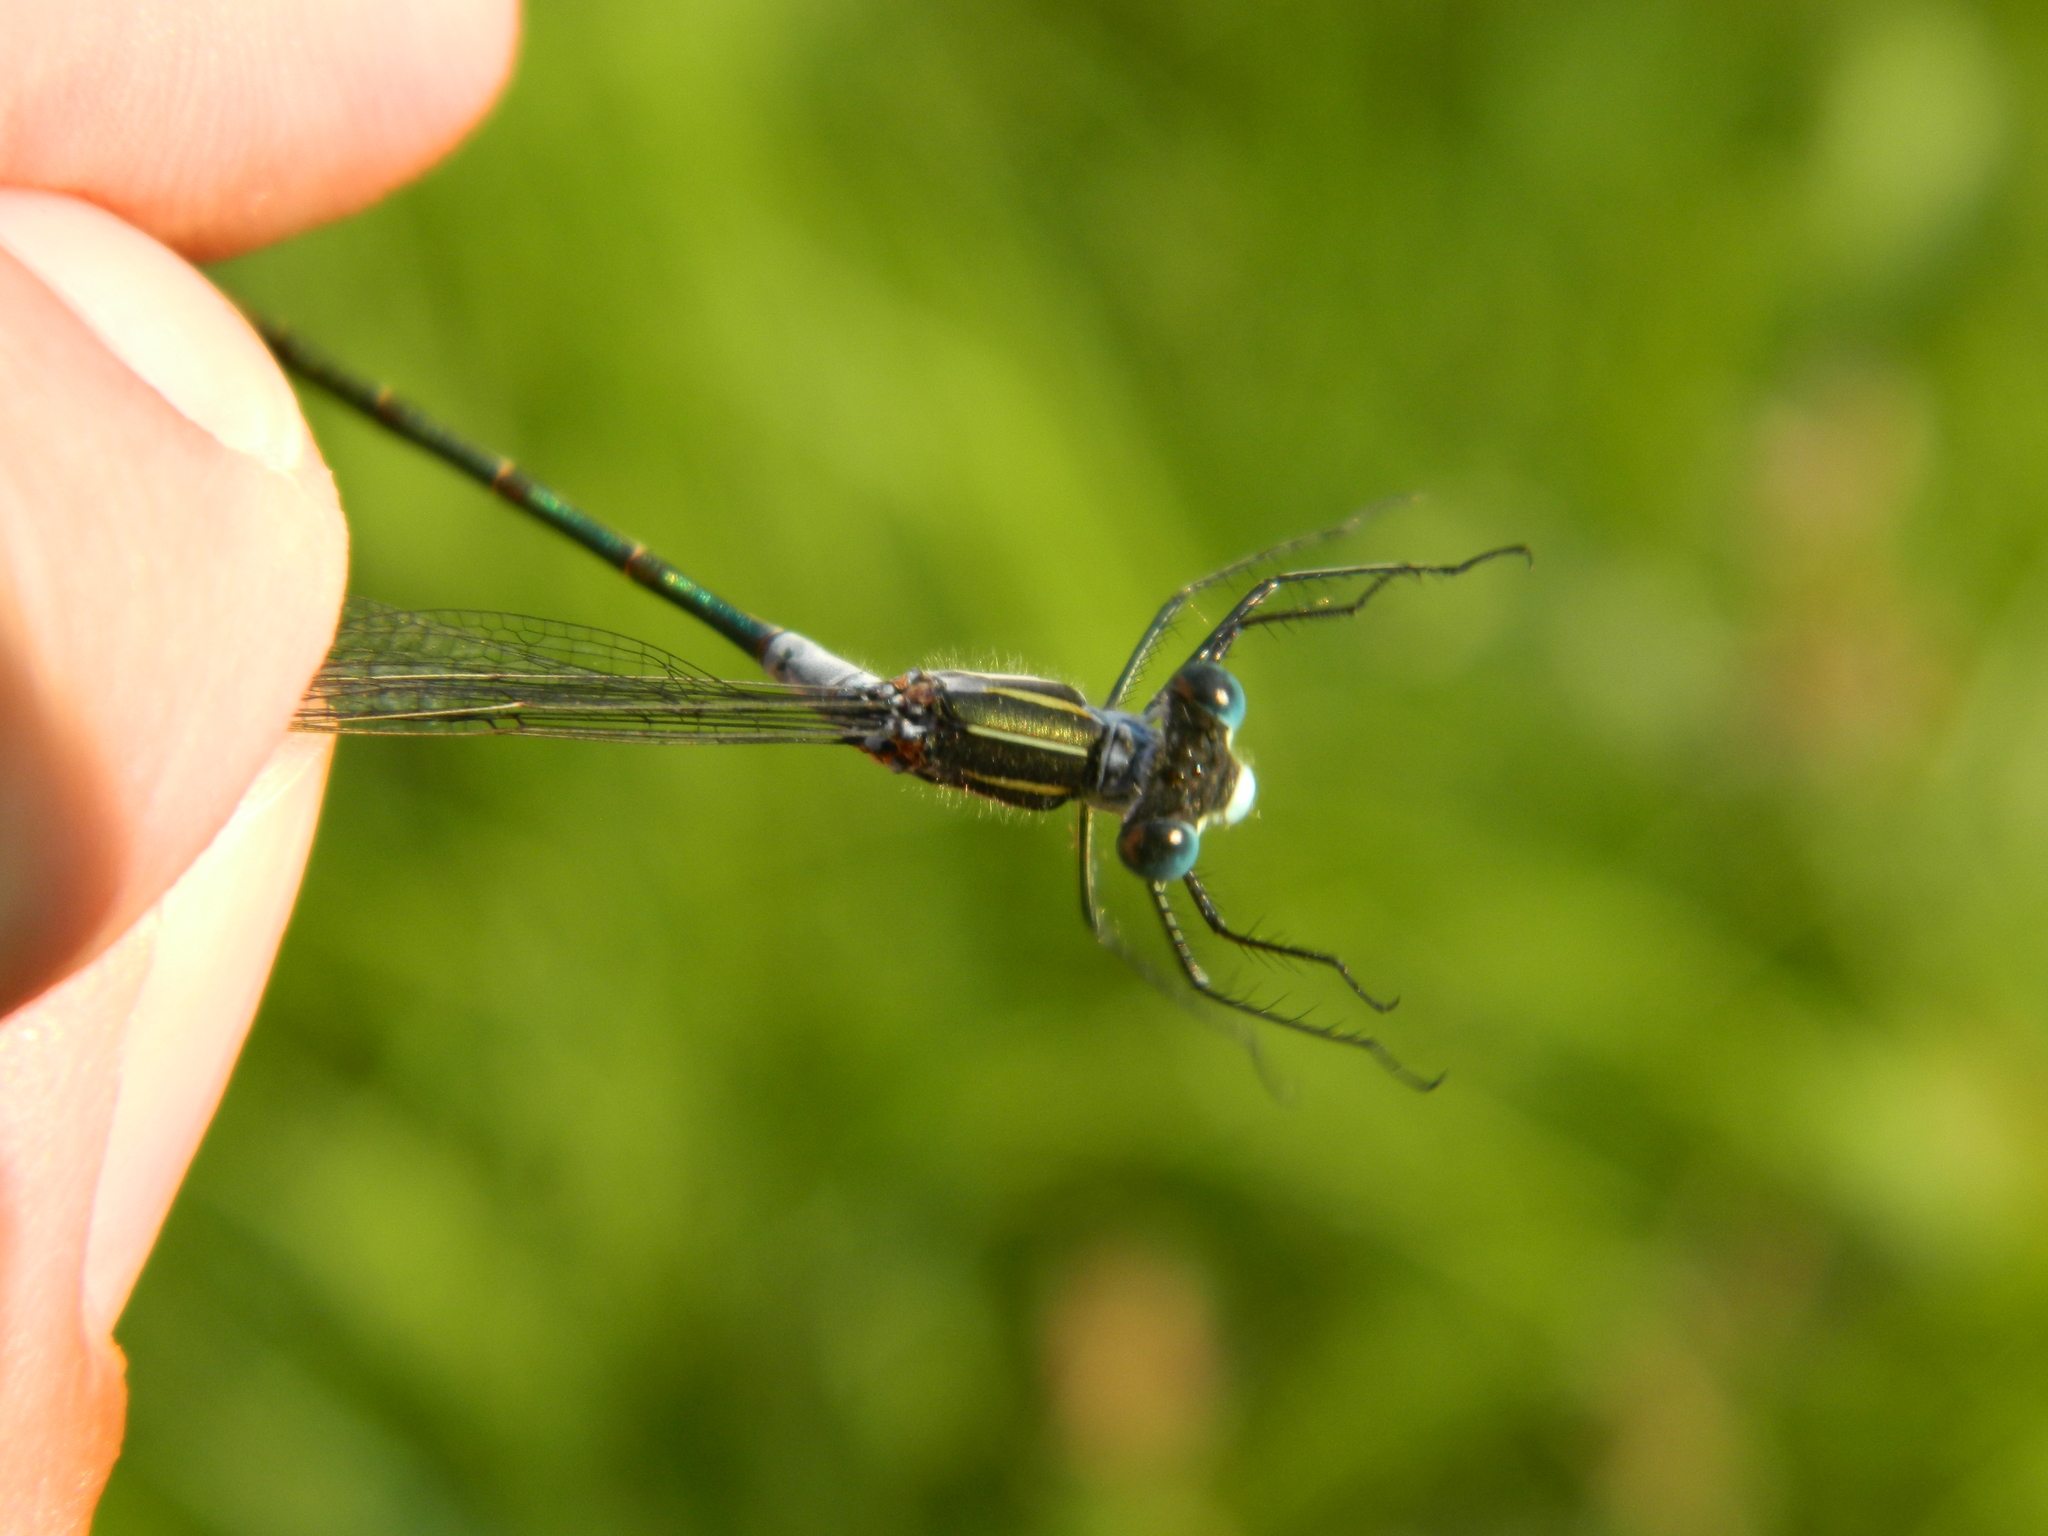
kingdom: Animalia
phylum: Arthropoda
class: Insecta
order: Odonata
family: Lestidae
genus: Lestes
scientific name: Lestes disjunctus
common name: Northern spreadwing
